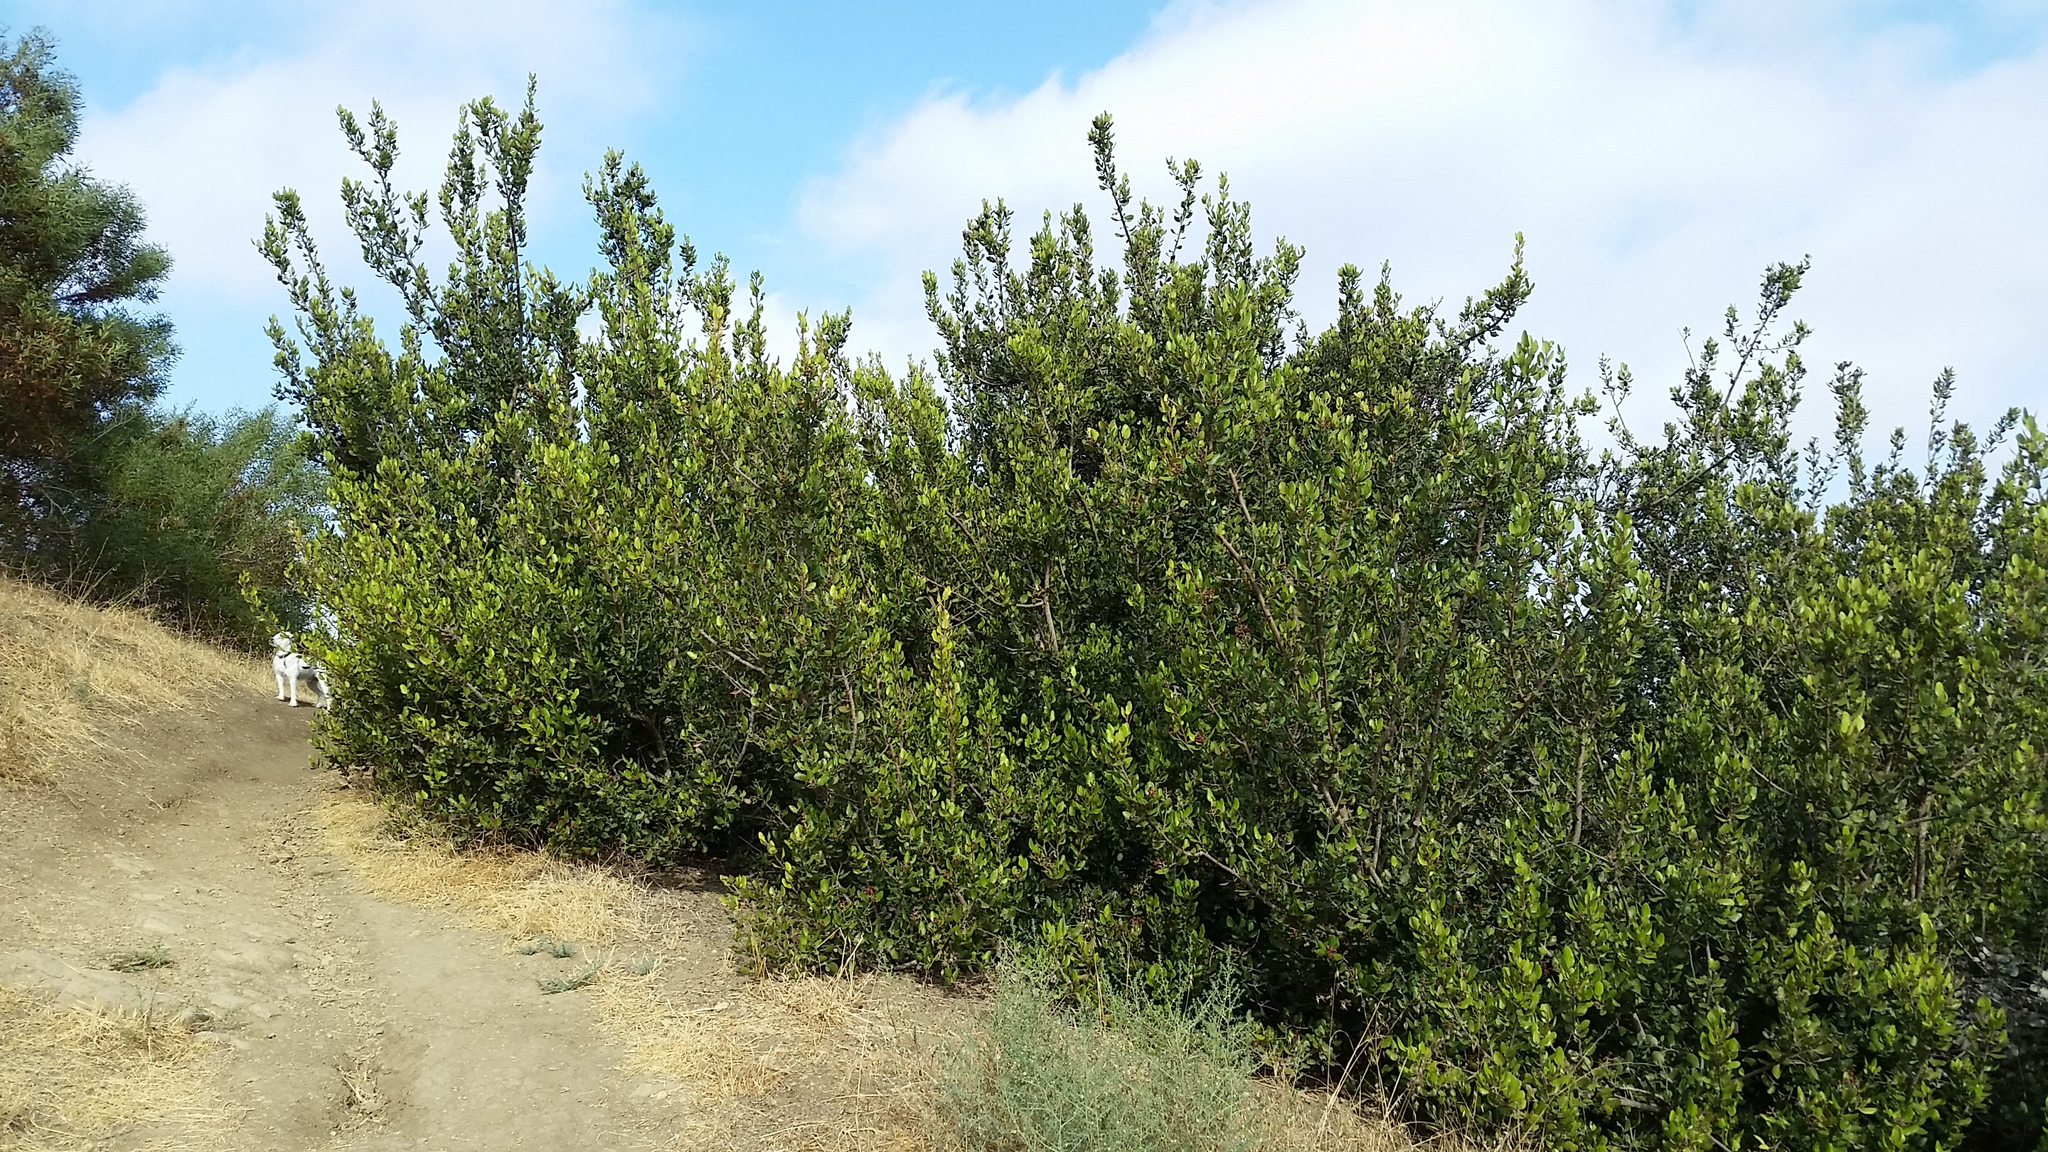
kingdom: Plantae
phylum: Tracheophyta
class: Magnoliopsida
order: Sapindales
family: Anacardiaceae
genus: Rhus
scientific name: Rhus integrifolia
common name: Lemonade sumac
